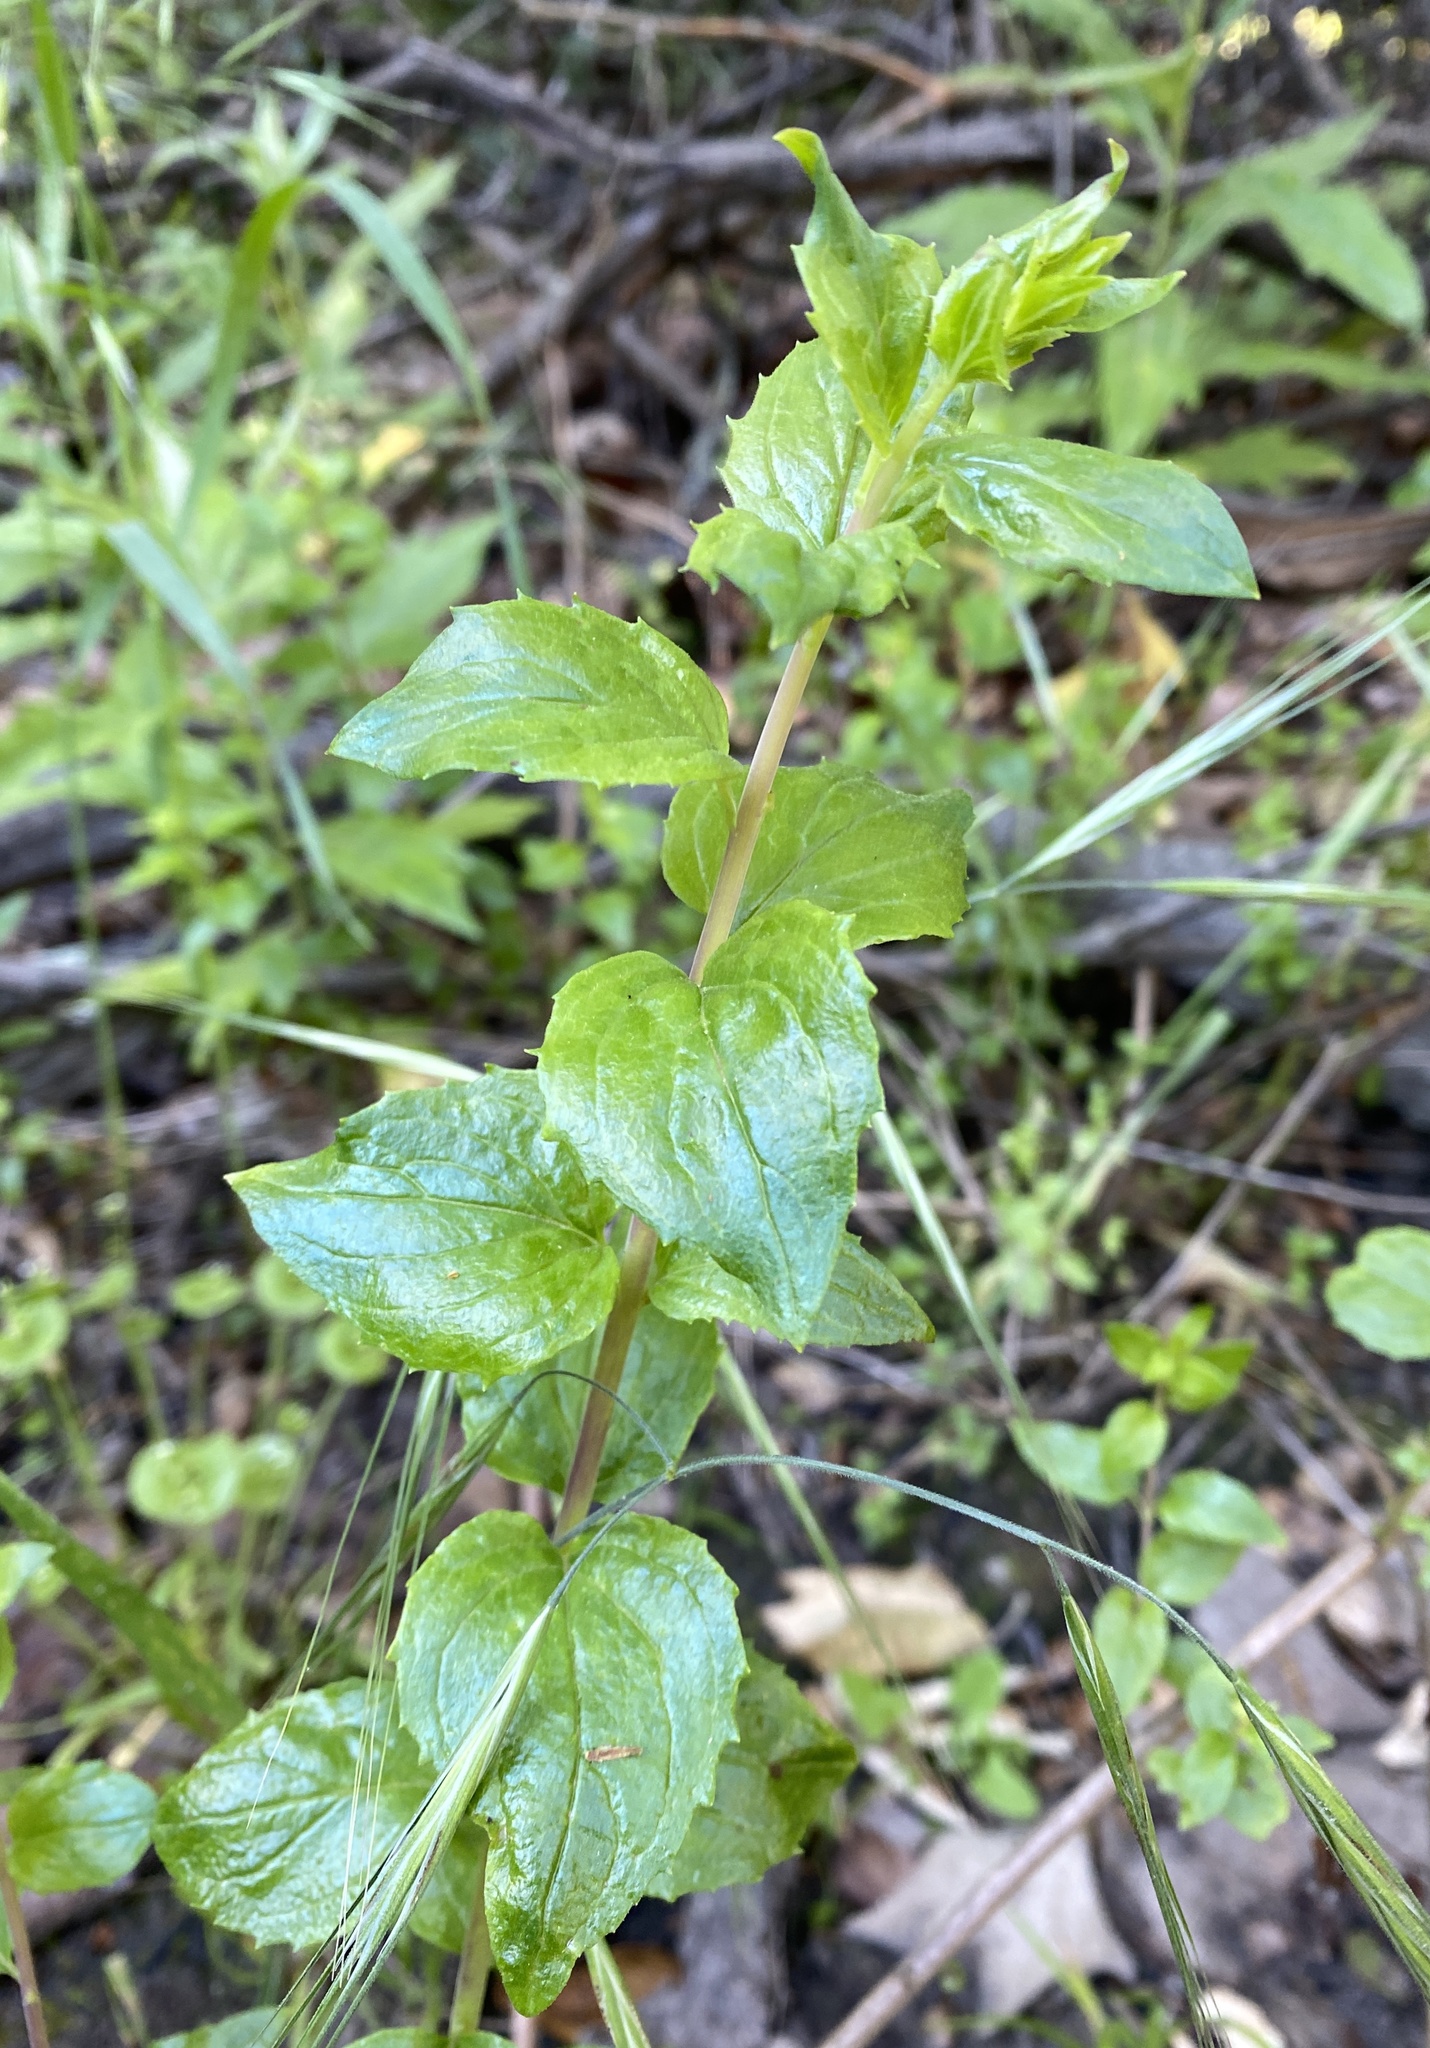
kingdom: Plantae
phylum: Tracheophyta
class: Magnoliopsida
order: Lamiales
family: Plantaginaceae
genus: Keckiella
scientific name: Keckiella cordifolia
